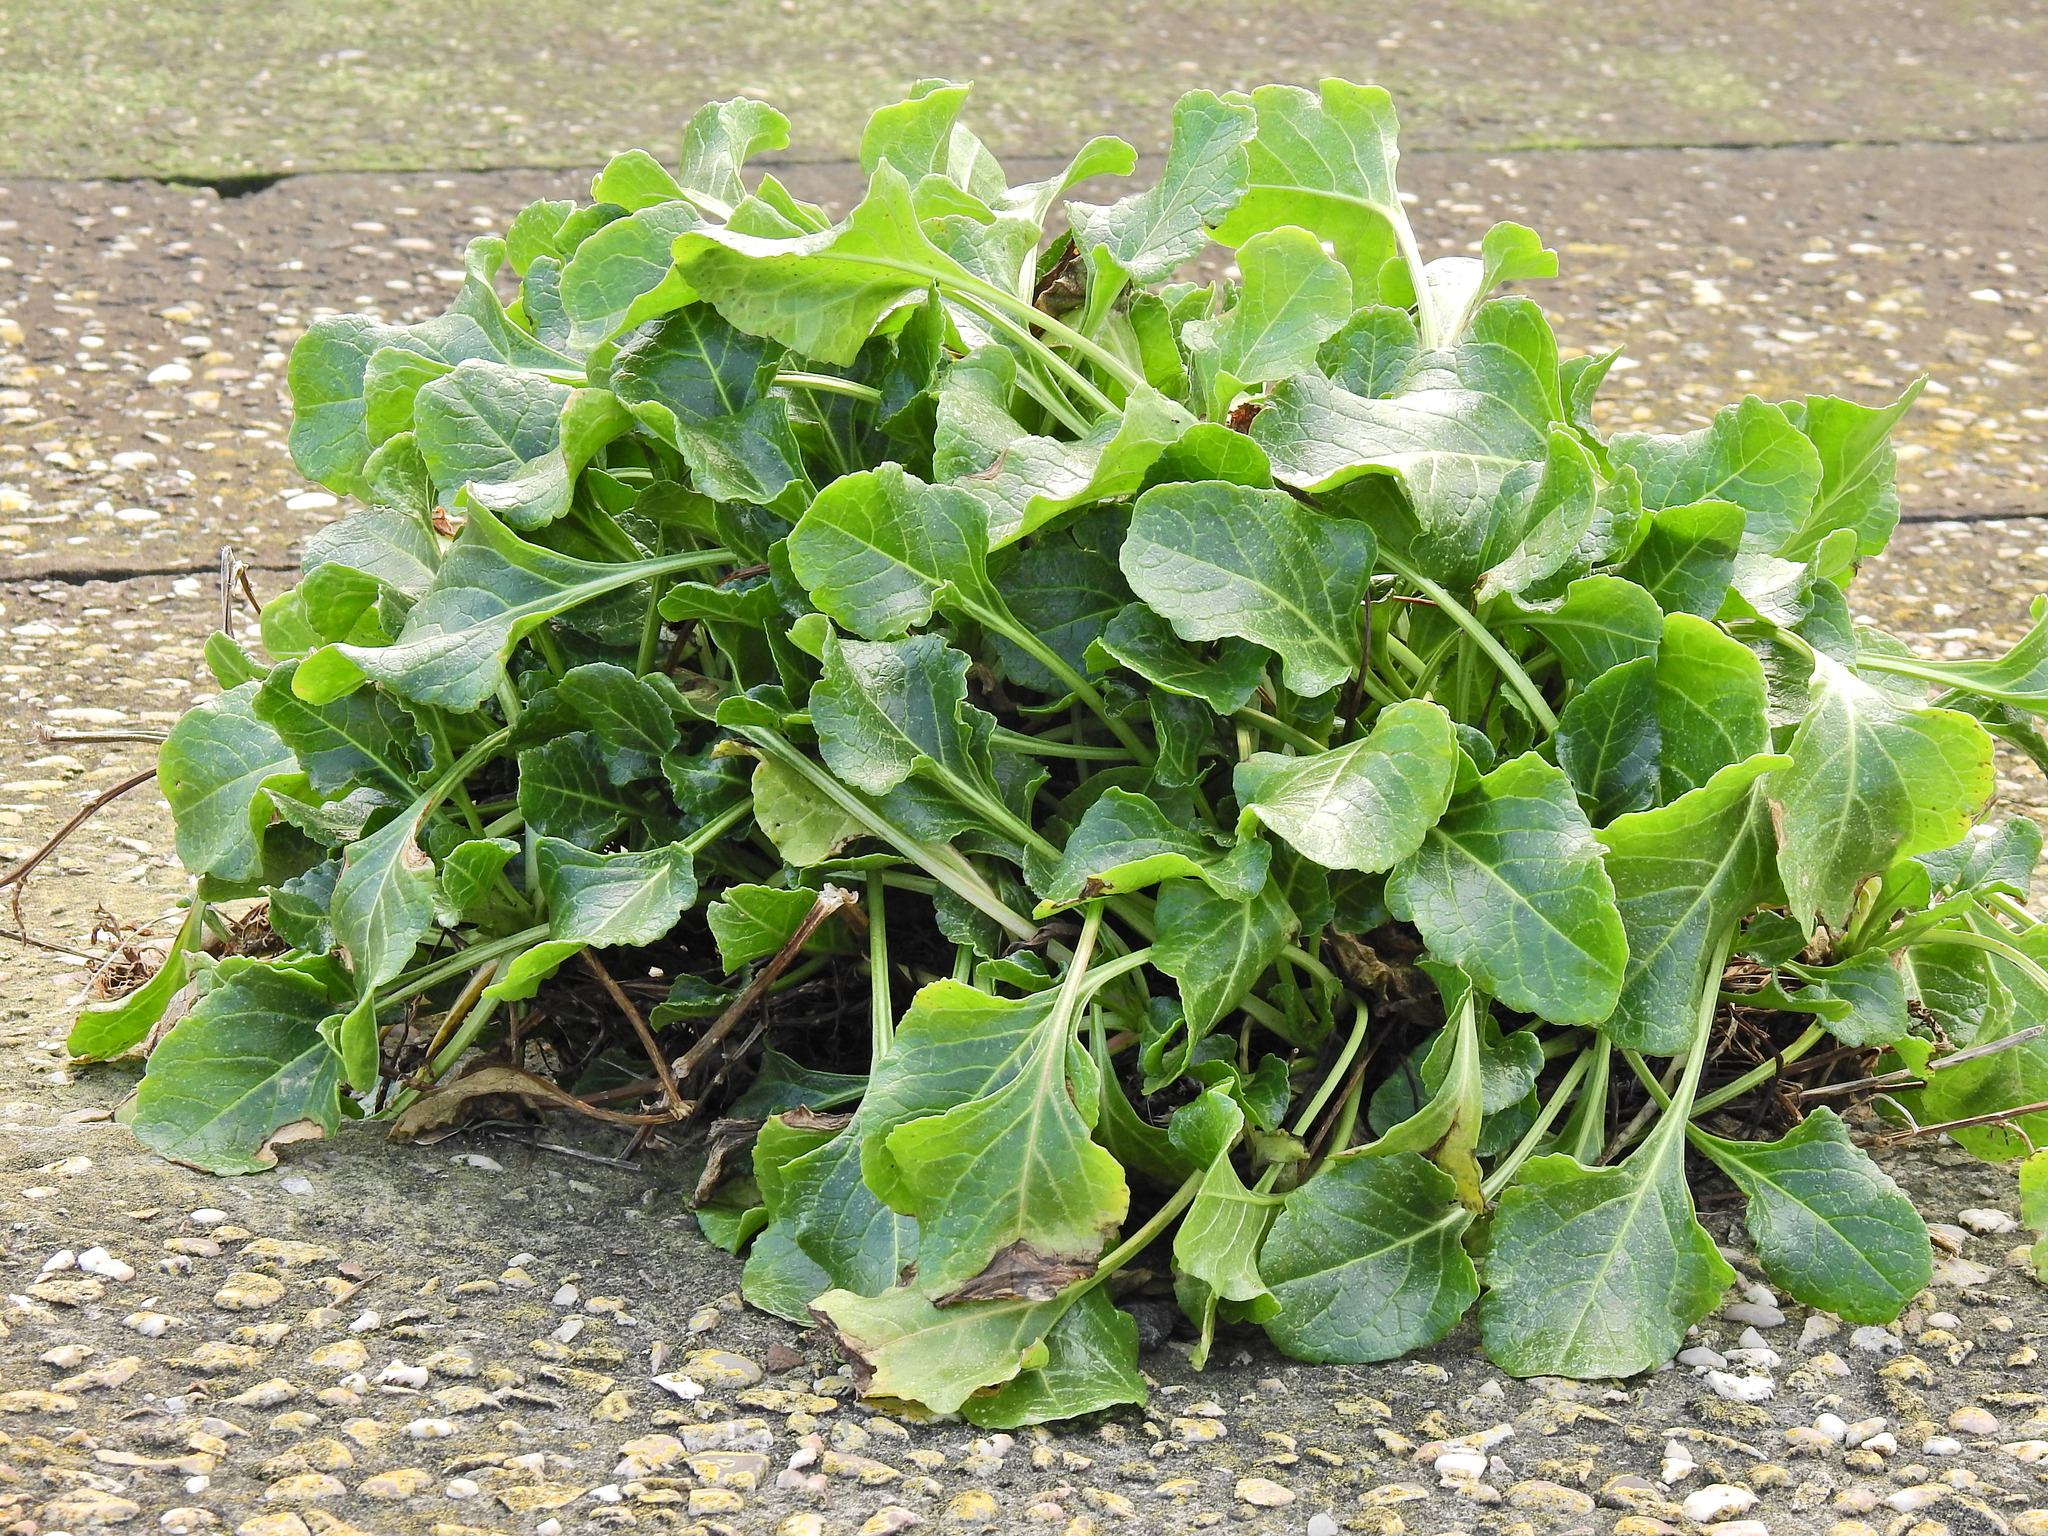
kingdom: Plantae
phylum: Tracheophyta
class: Magnoliopsida
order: Caryophyllales
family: Amaranthaceae
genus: Beta
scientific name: Beta vulgaris
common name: Beet
